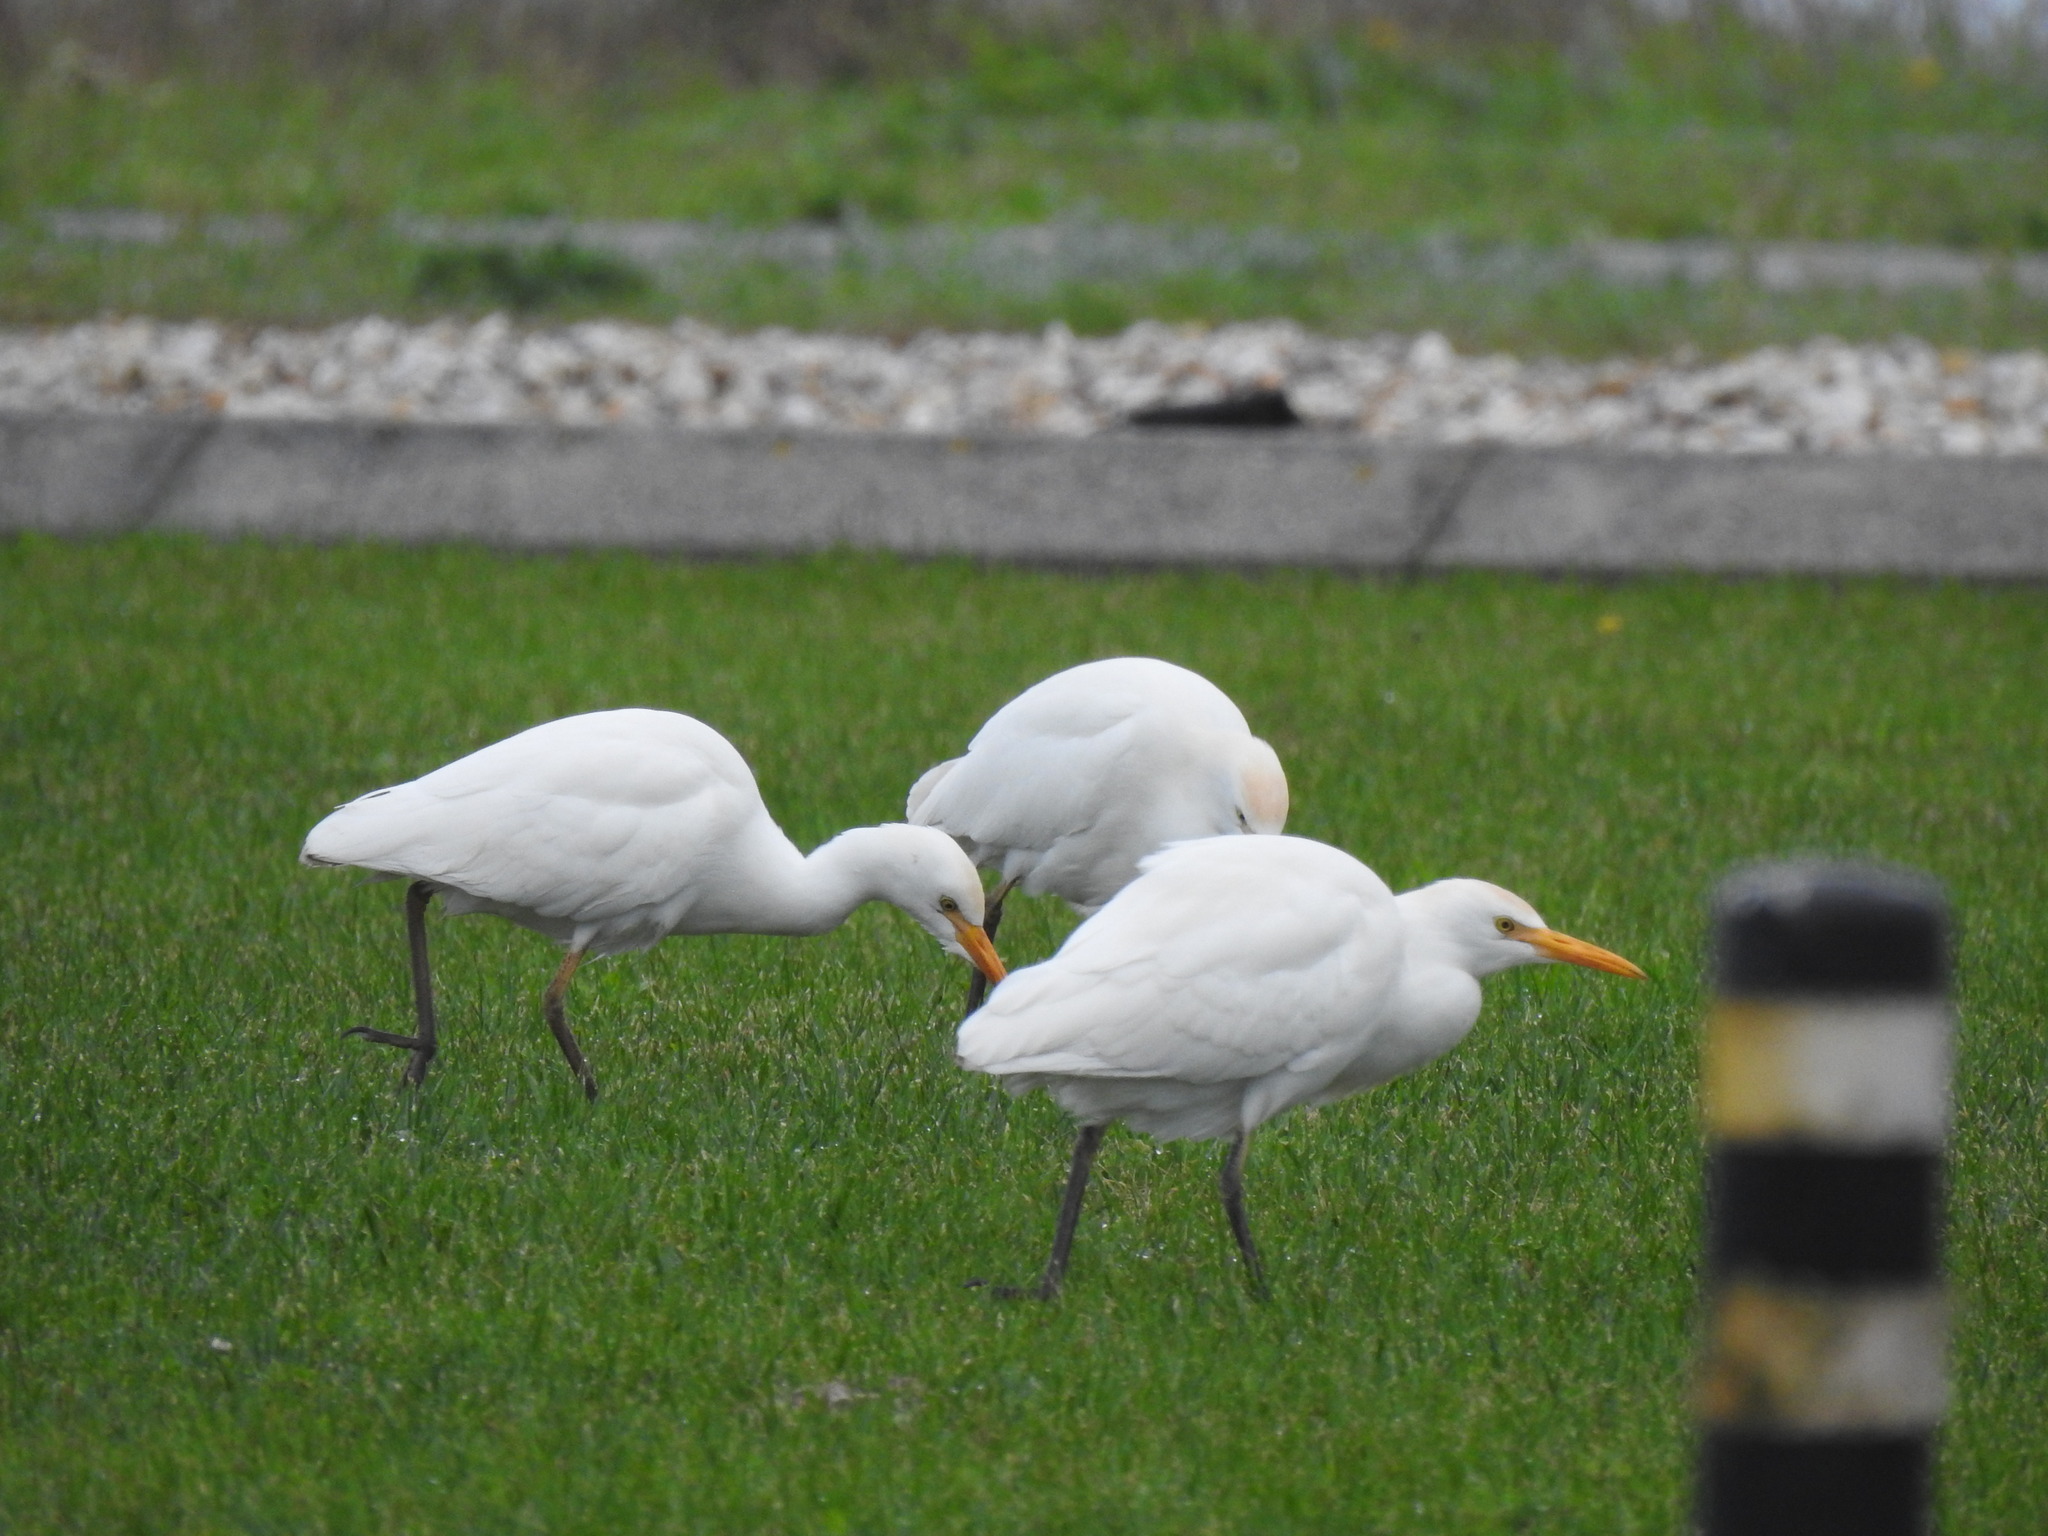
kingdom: Animalia
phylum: Chordata
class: Aves
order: Pelecaniformes
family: Ardeidae
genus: Bubulcus
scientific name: Bubulcus ibis
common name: Cattle egret
